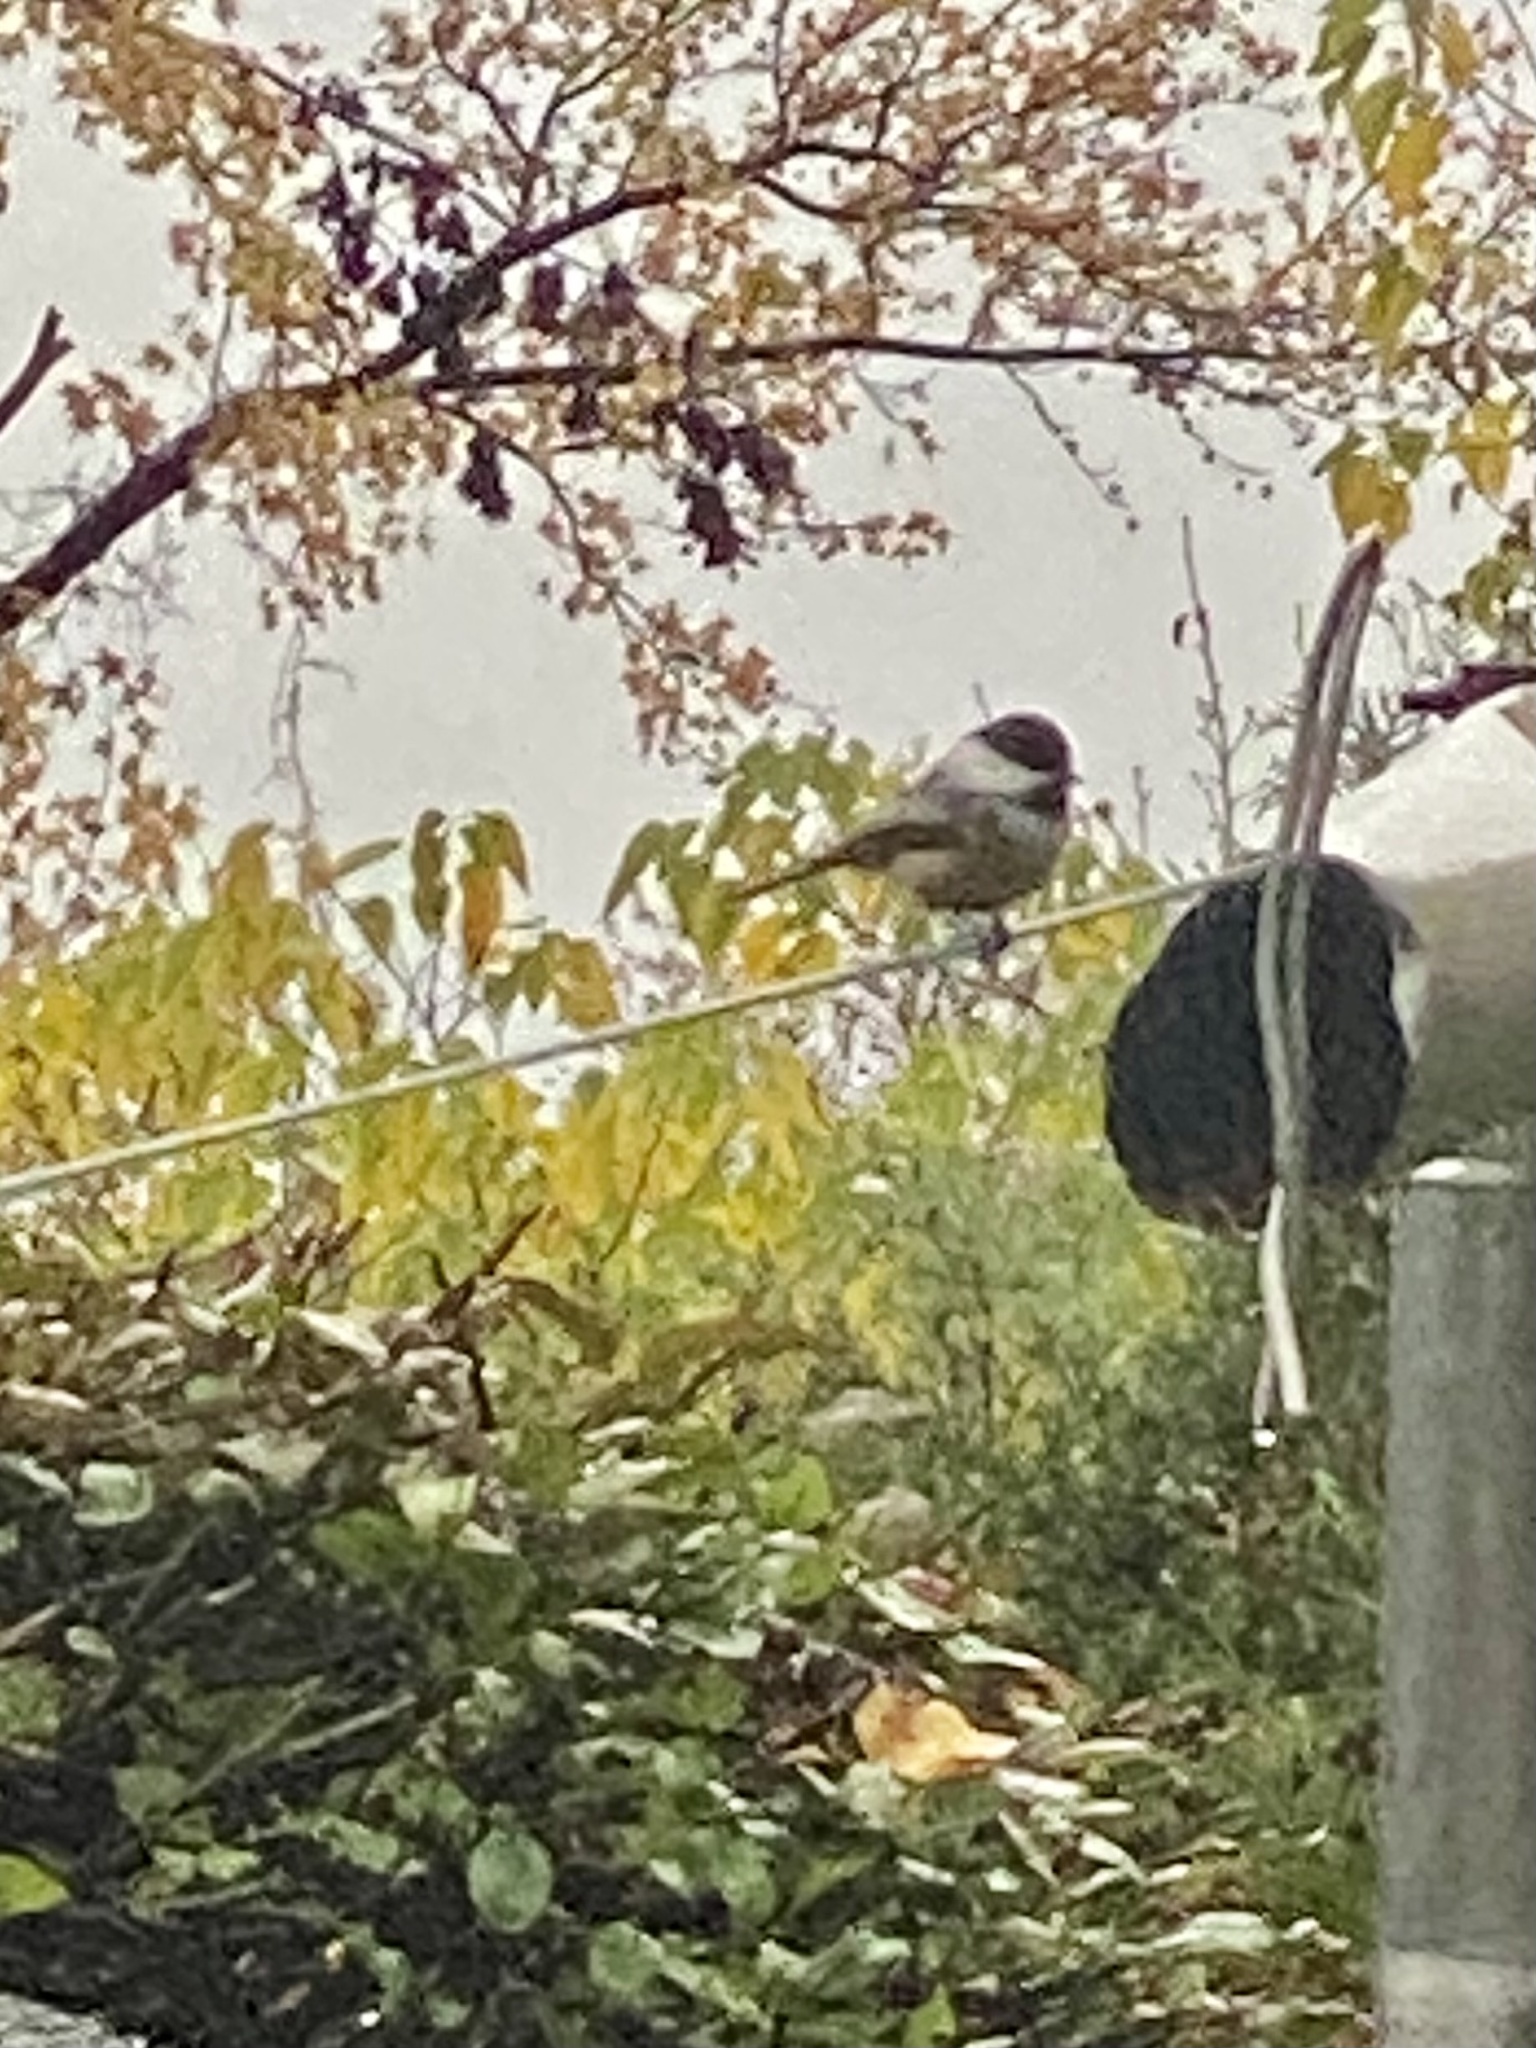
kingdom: Animalia
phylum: Chordata
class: Aves
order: Passeriformes
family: Paridae
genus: Poecile
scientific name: Poecile atricapillus
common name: Black-capped chickadee
